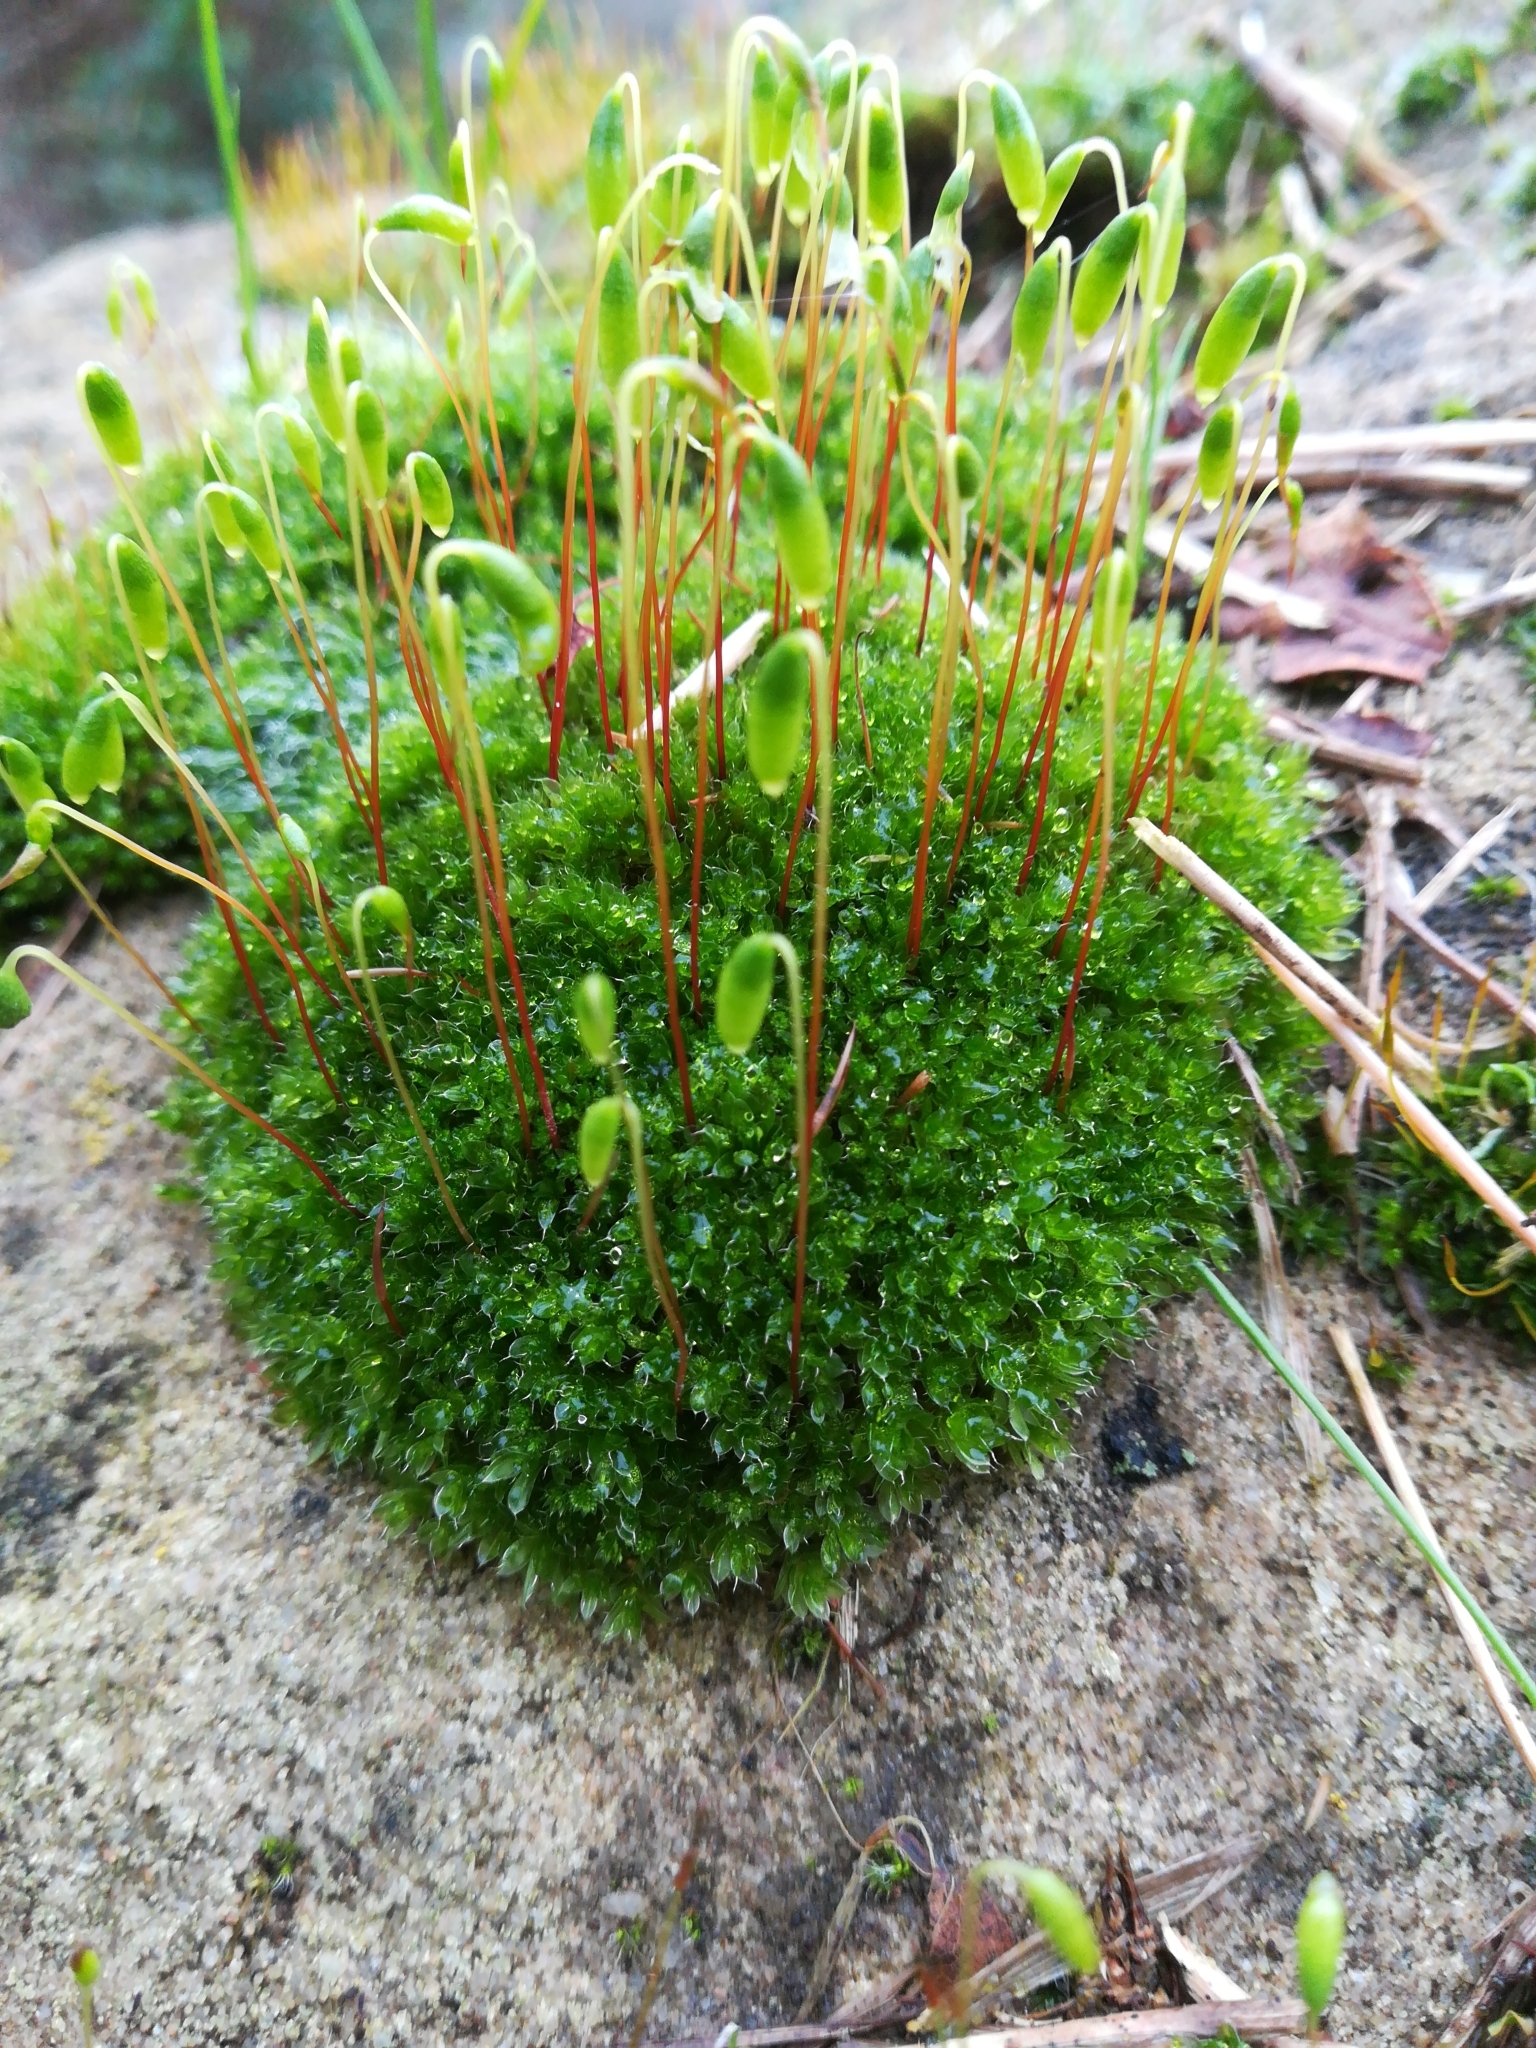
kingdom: Plantae
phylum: Bryophyta
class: Bryopsida
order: Bryales
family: Bryaceae
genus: Rosulabryum
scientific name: Rosulabryum capillare
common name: Capillary thread-moss
